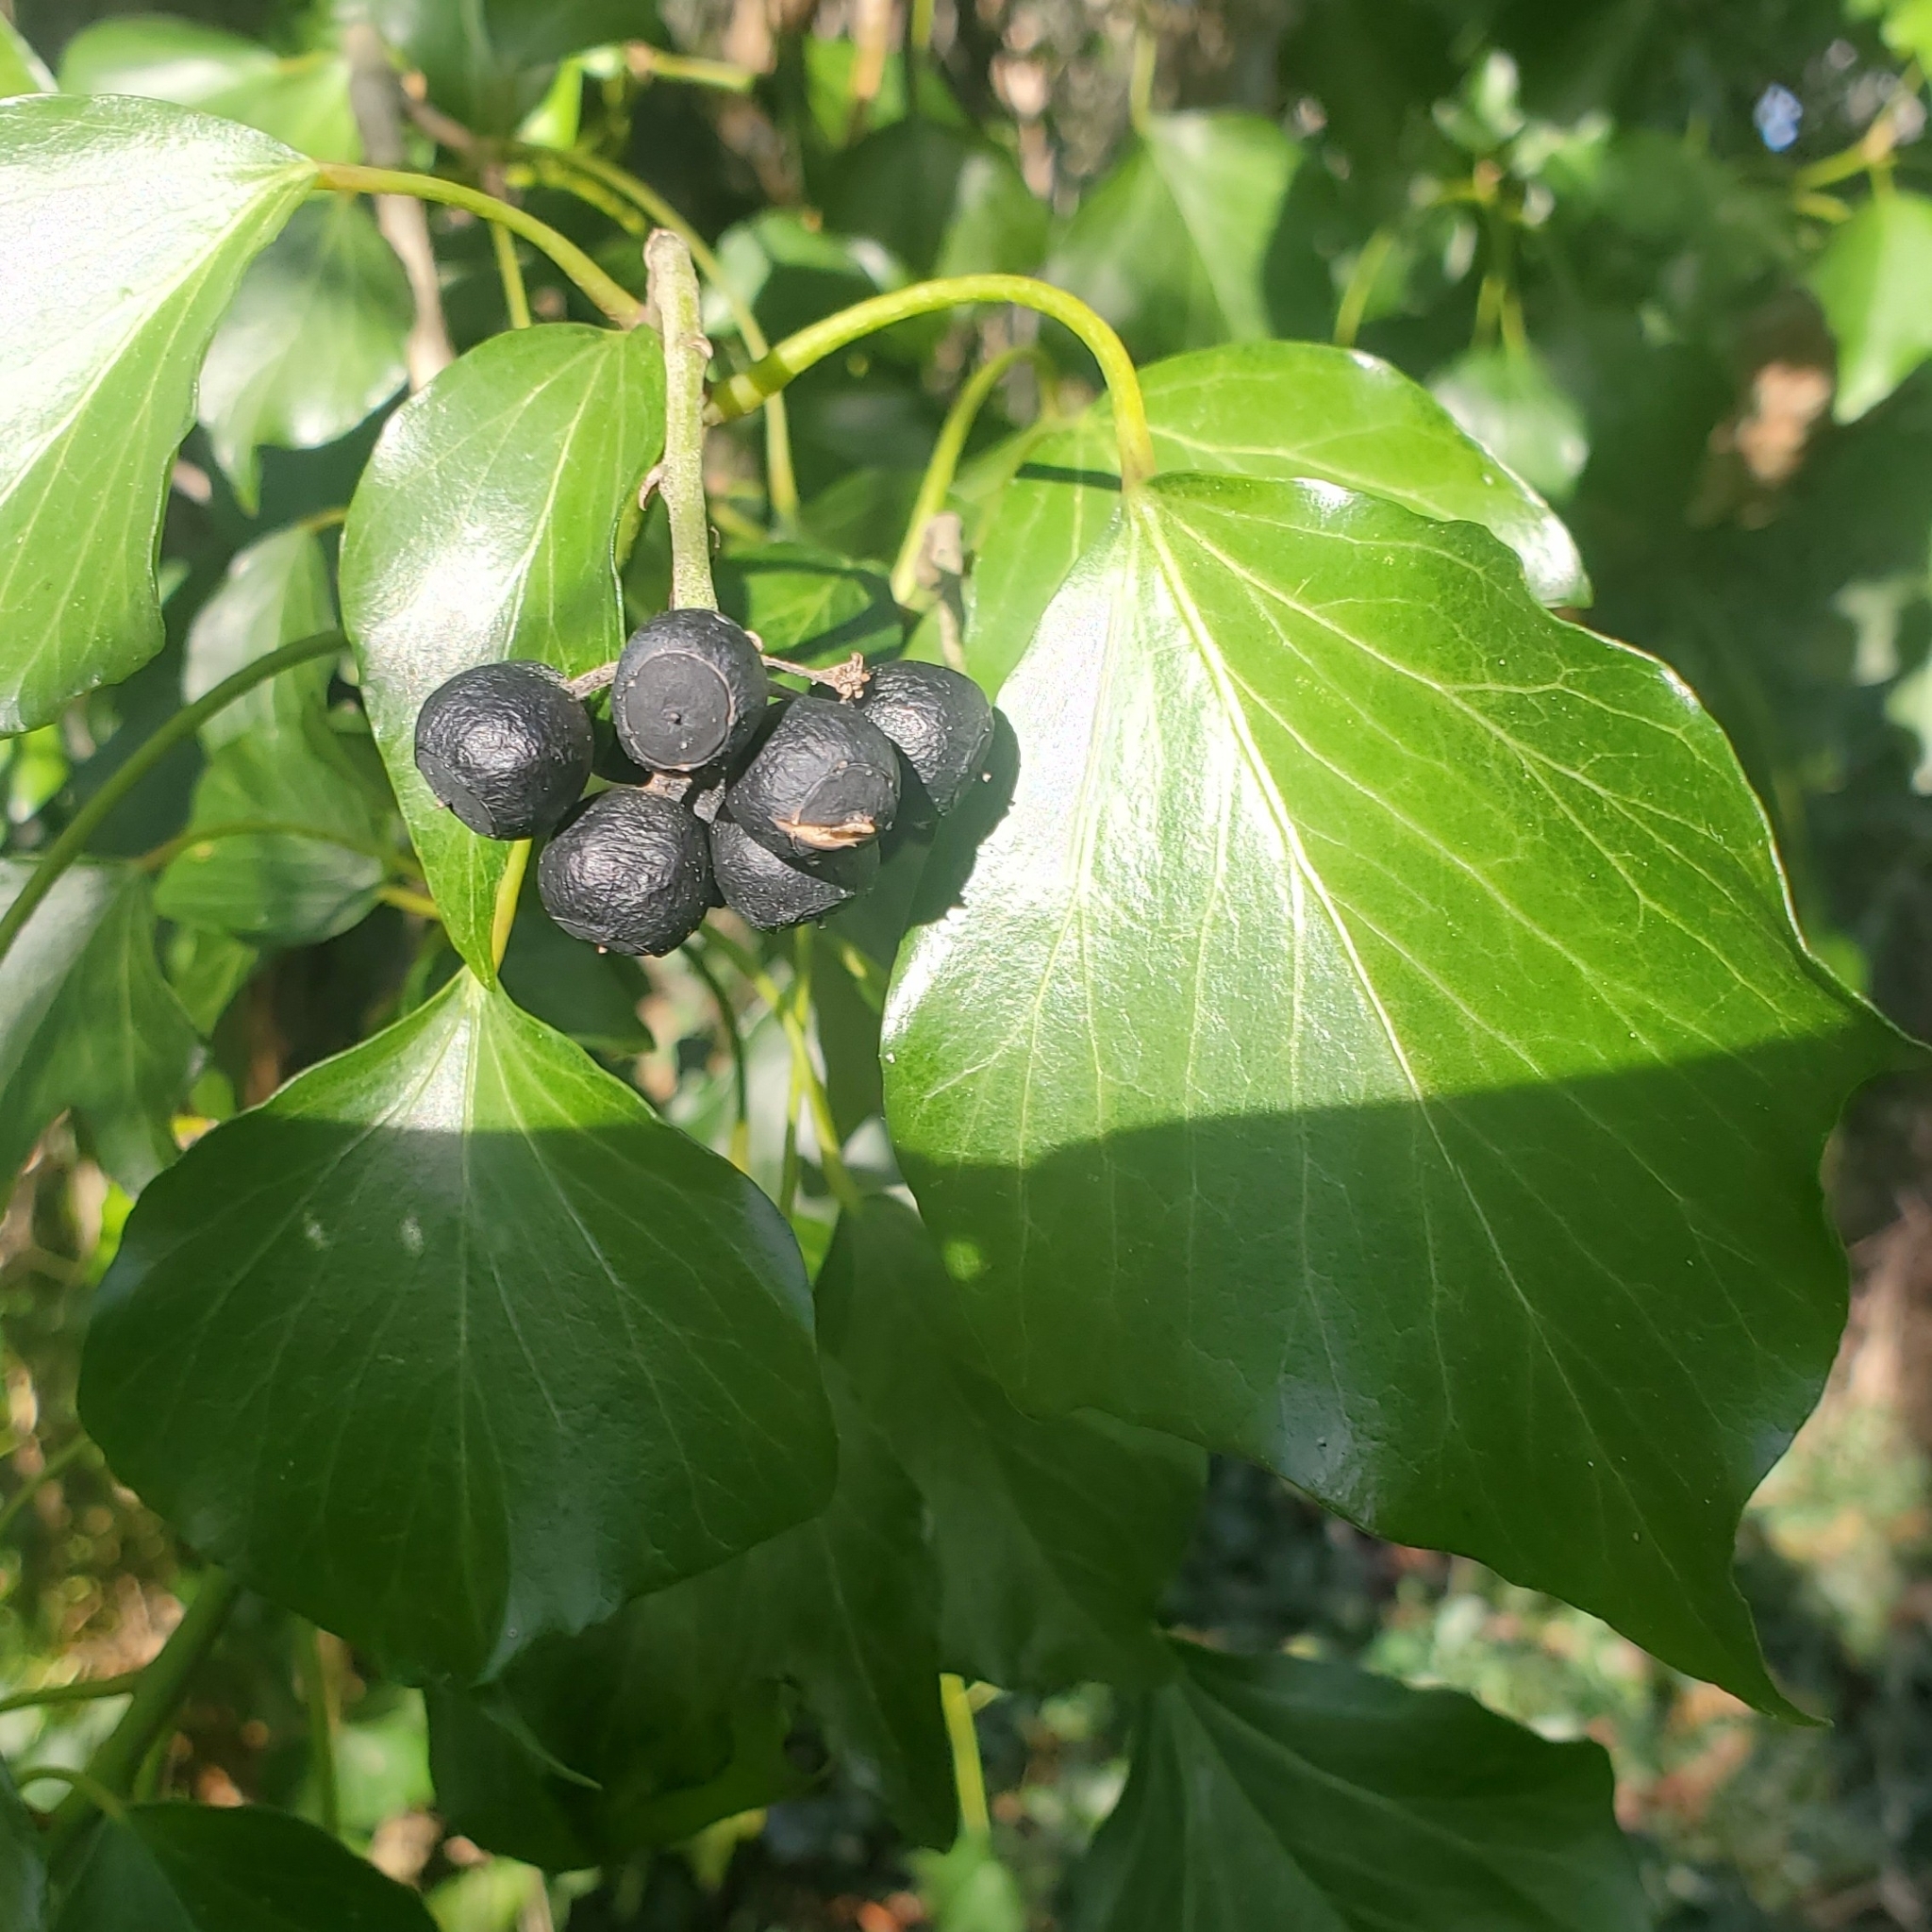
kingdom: Plantae
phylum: Tracheophyta
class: Magnoliopsida
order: Apiales
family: Araliaceae
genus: Hedera
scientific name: Hedera
